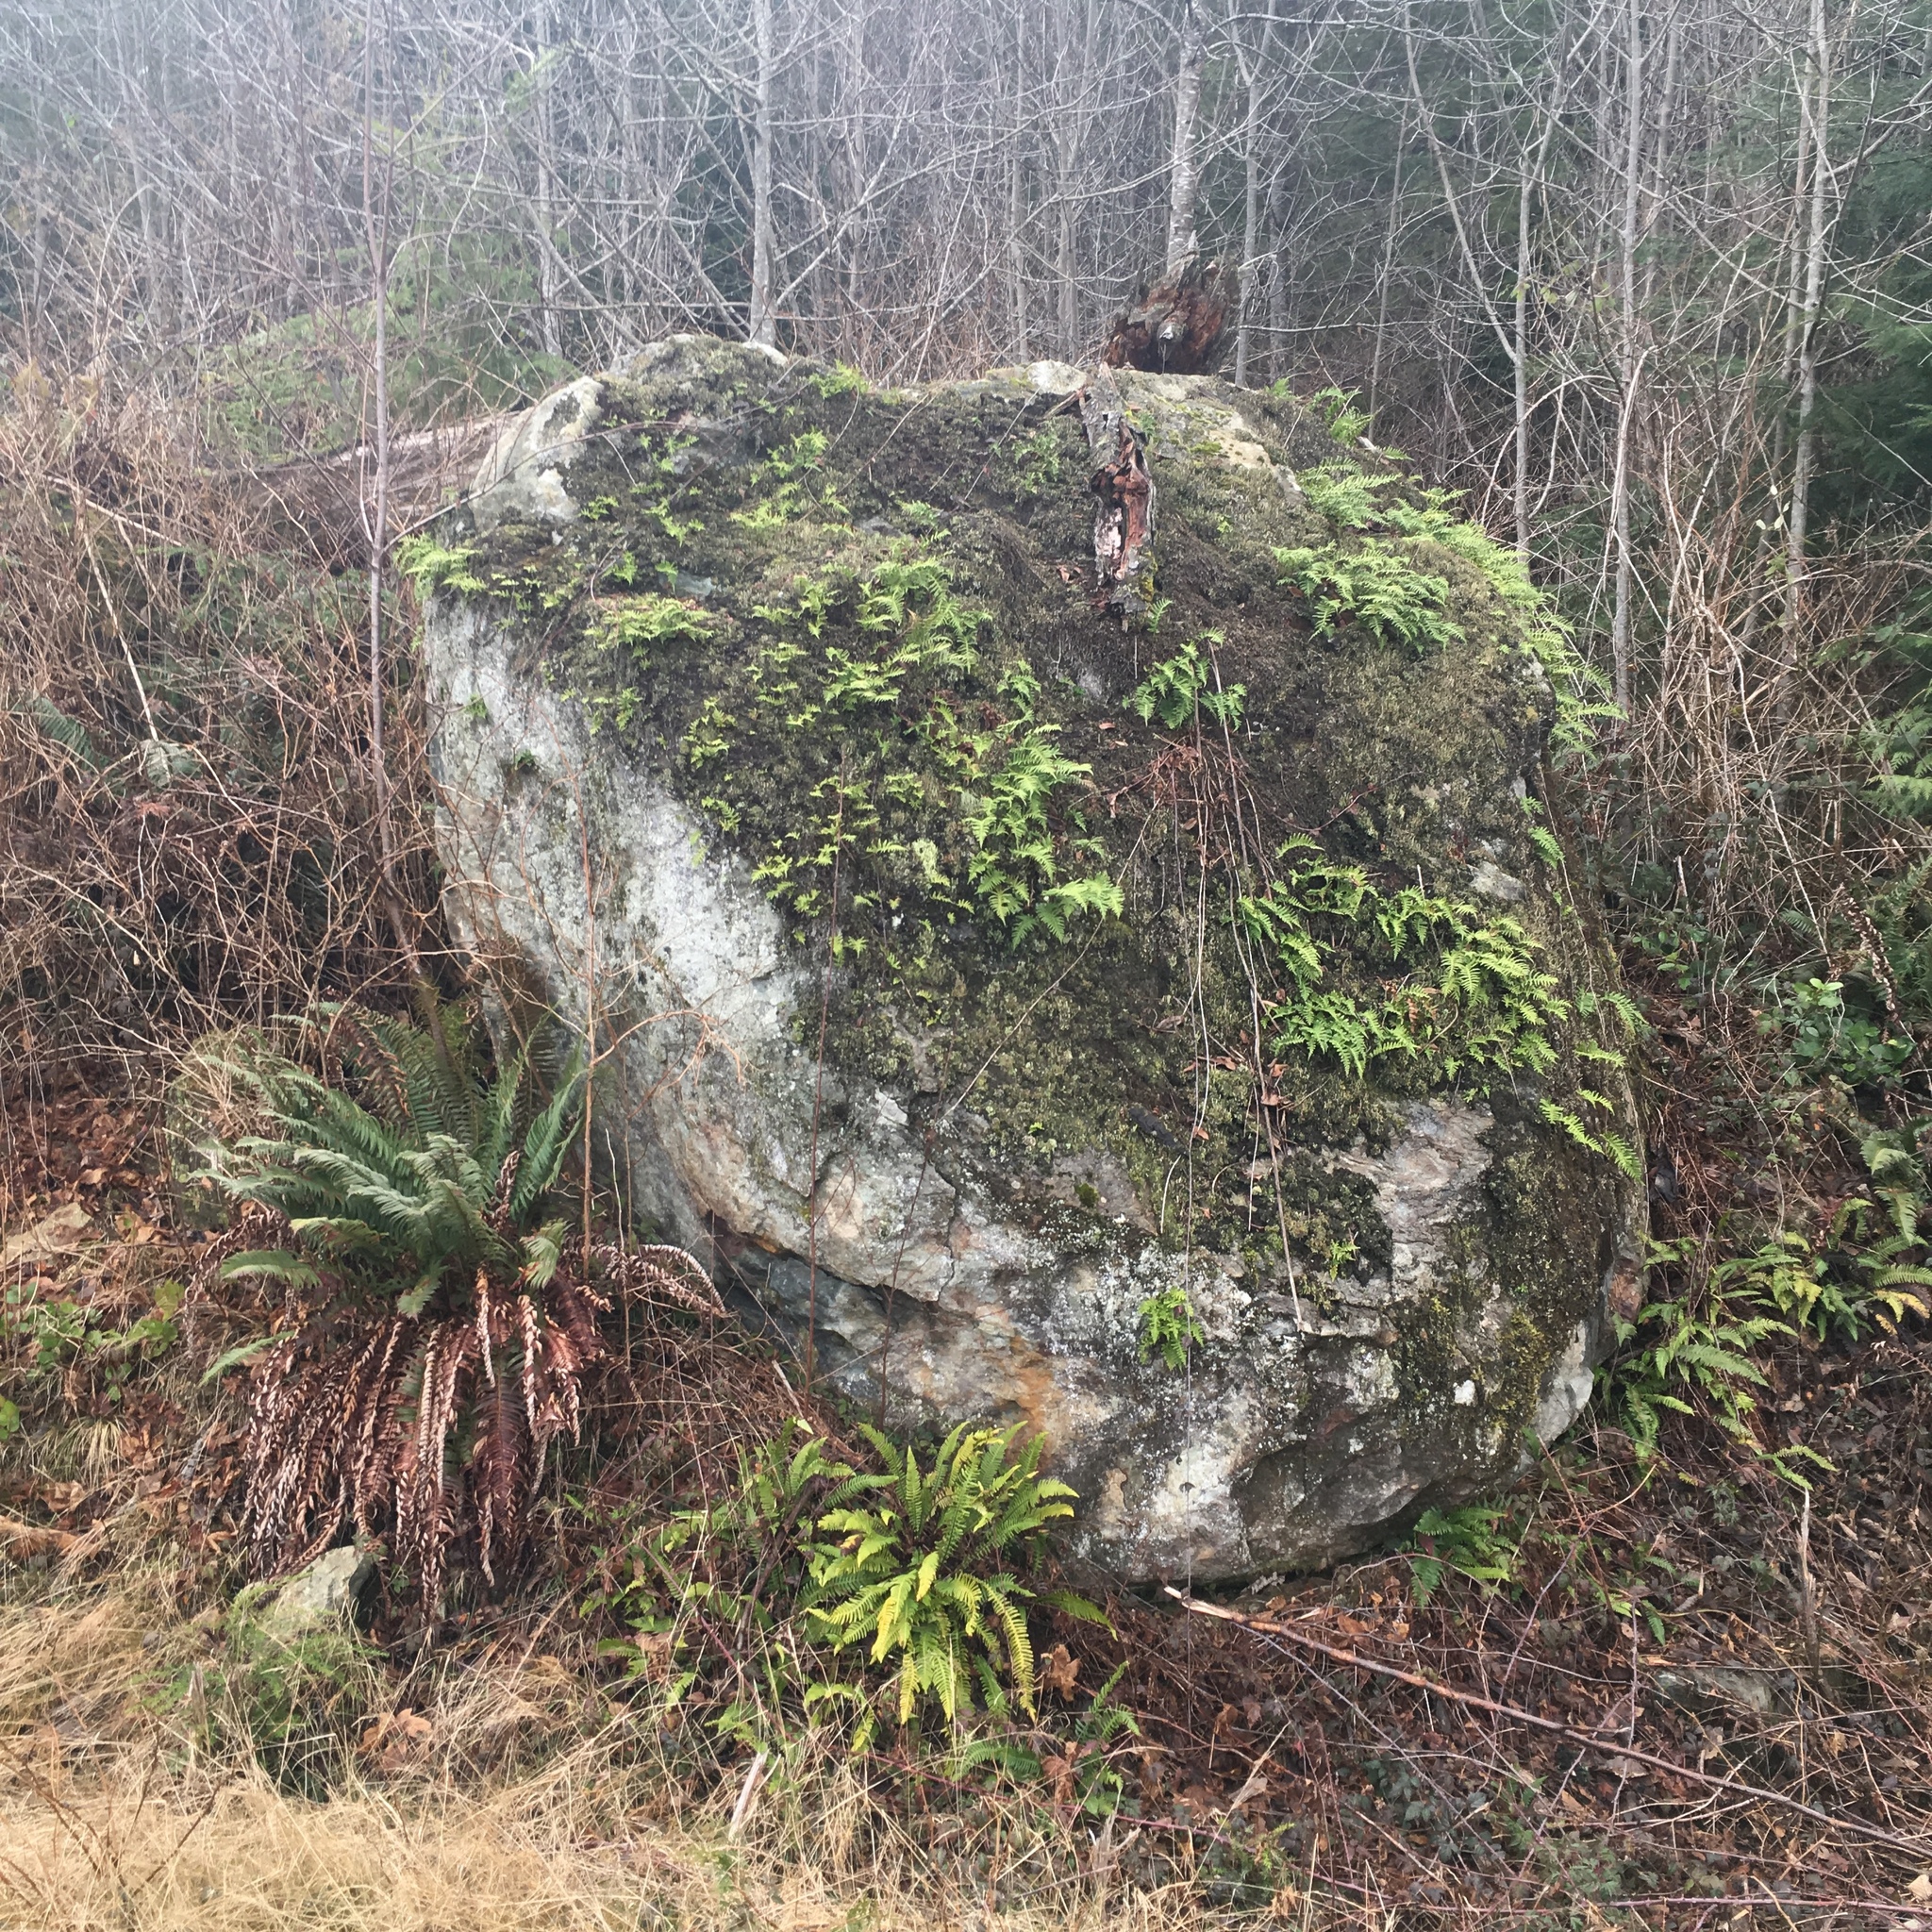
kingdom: Plantae
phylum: Tracheophyta
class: Polypodiopsida
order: Polypodiales
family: Polypodiaceae
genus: Polypodium
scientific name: Polypodium glycyrrhiza
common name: Licorice fern
